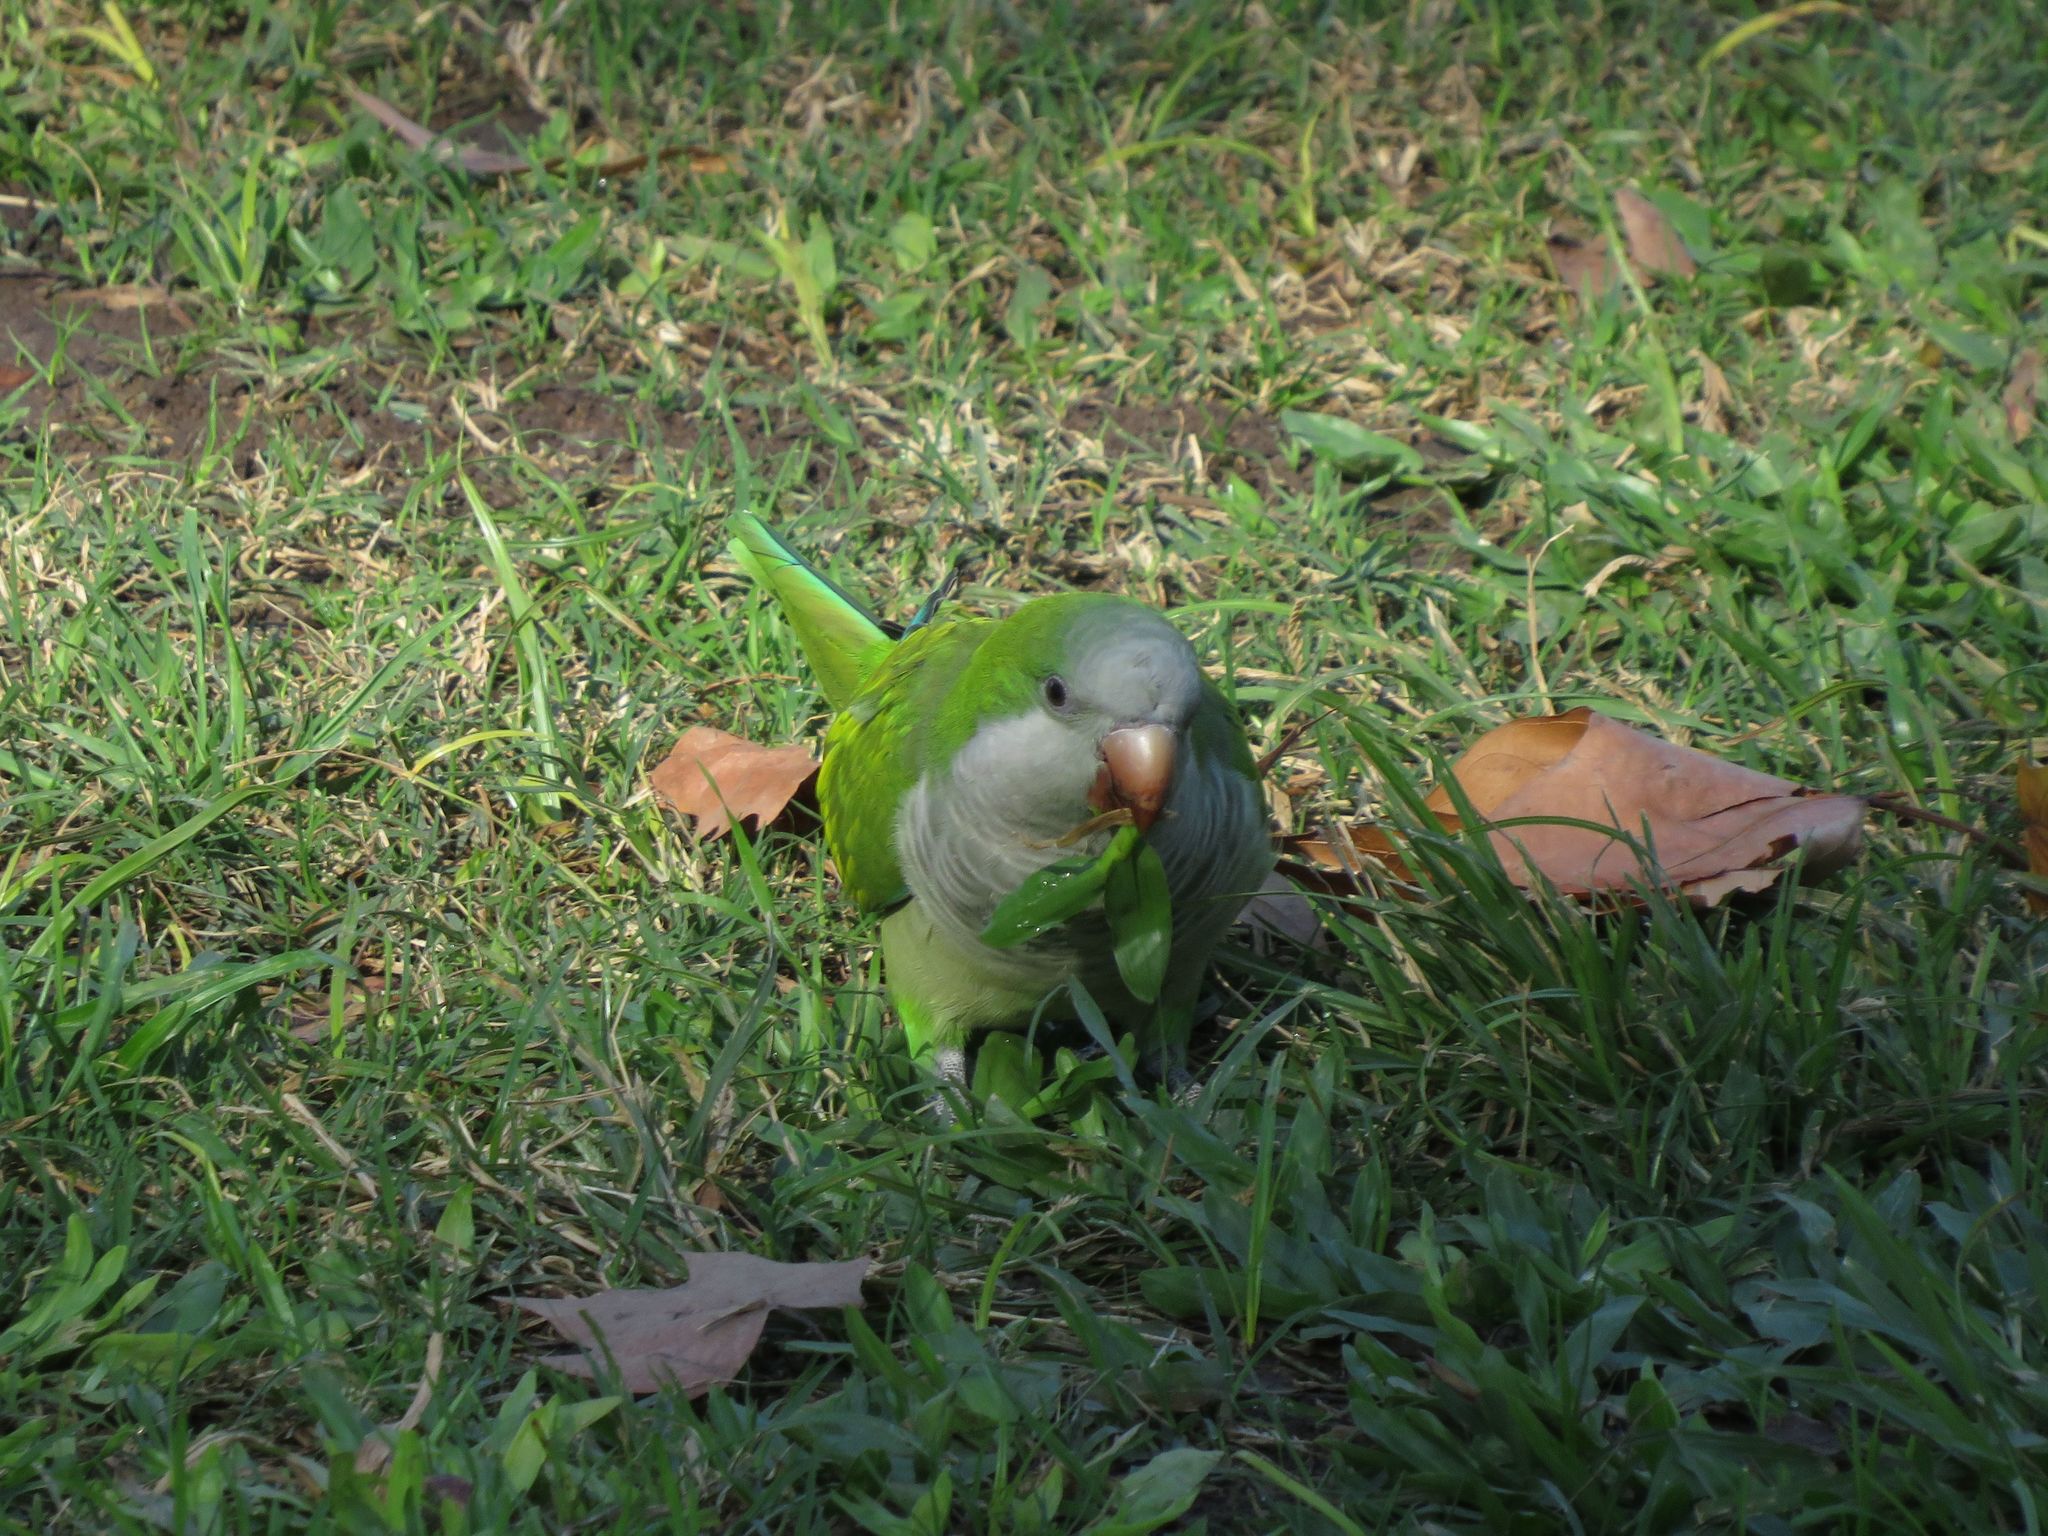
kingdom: Animalia
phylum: Chordata
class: Aves
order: Psittaciformes
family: Psittacidae
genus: Myiopsitta
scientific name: Myiopsitta monachus
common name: Monk parakeet
